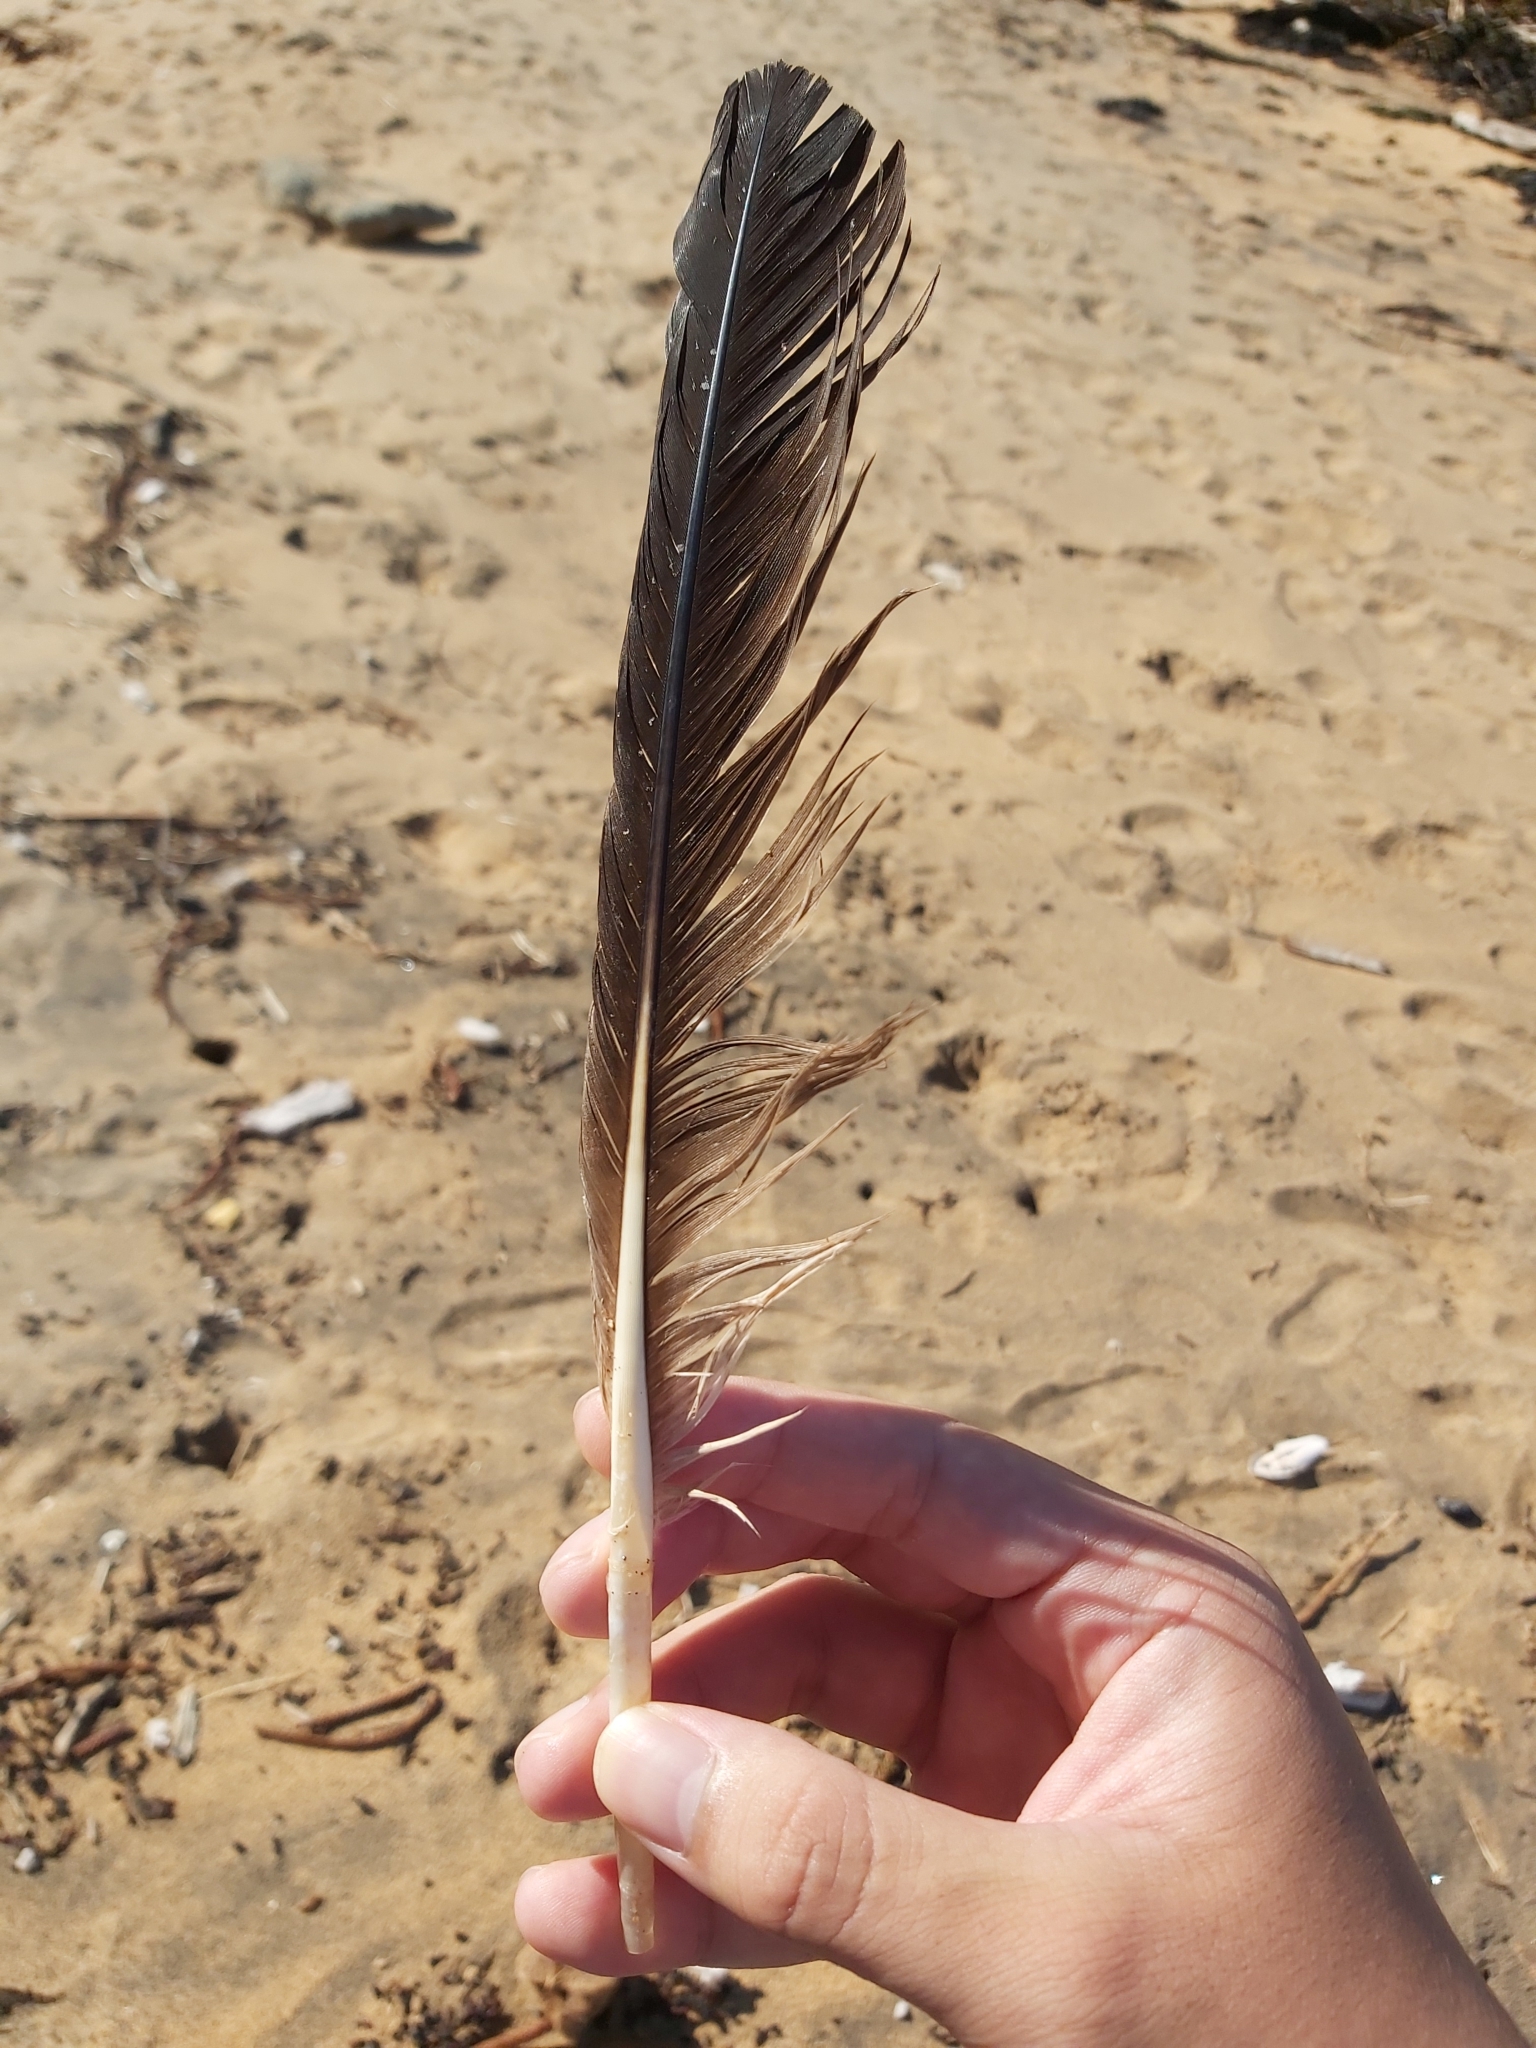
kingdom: Animalia
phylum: Chordata
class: Aves
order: Pelecaniformes
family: Pelecanidae
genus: Pelecanus
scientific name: Pelecanus conspicillatus
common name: Australian pelican
